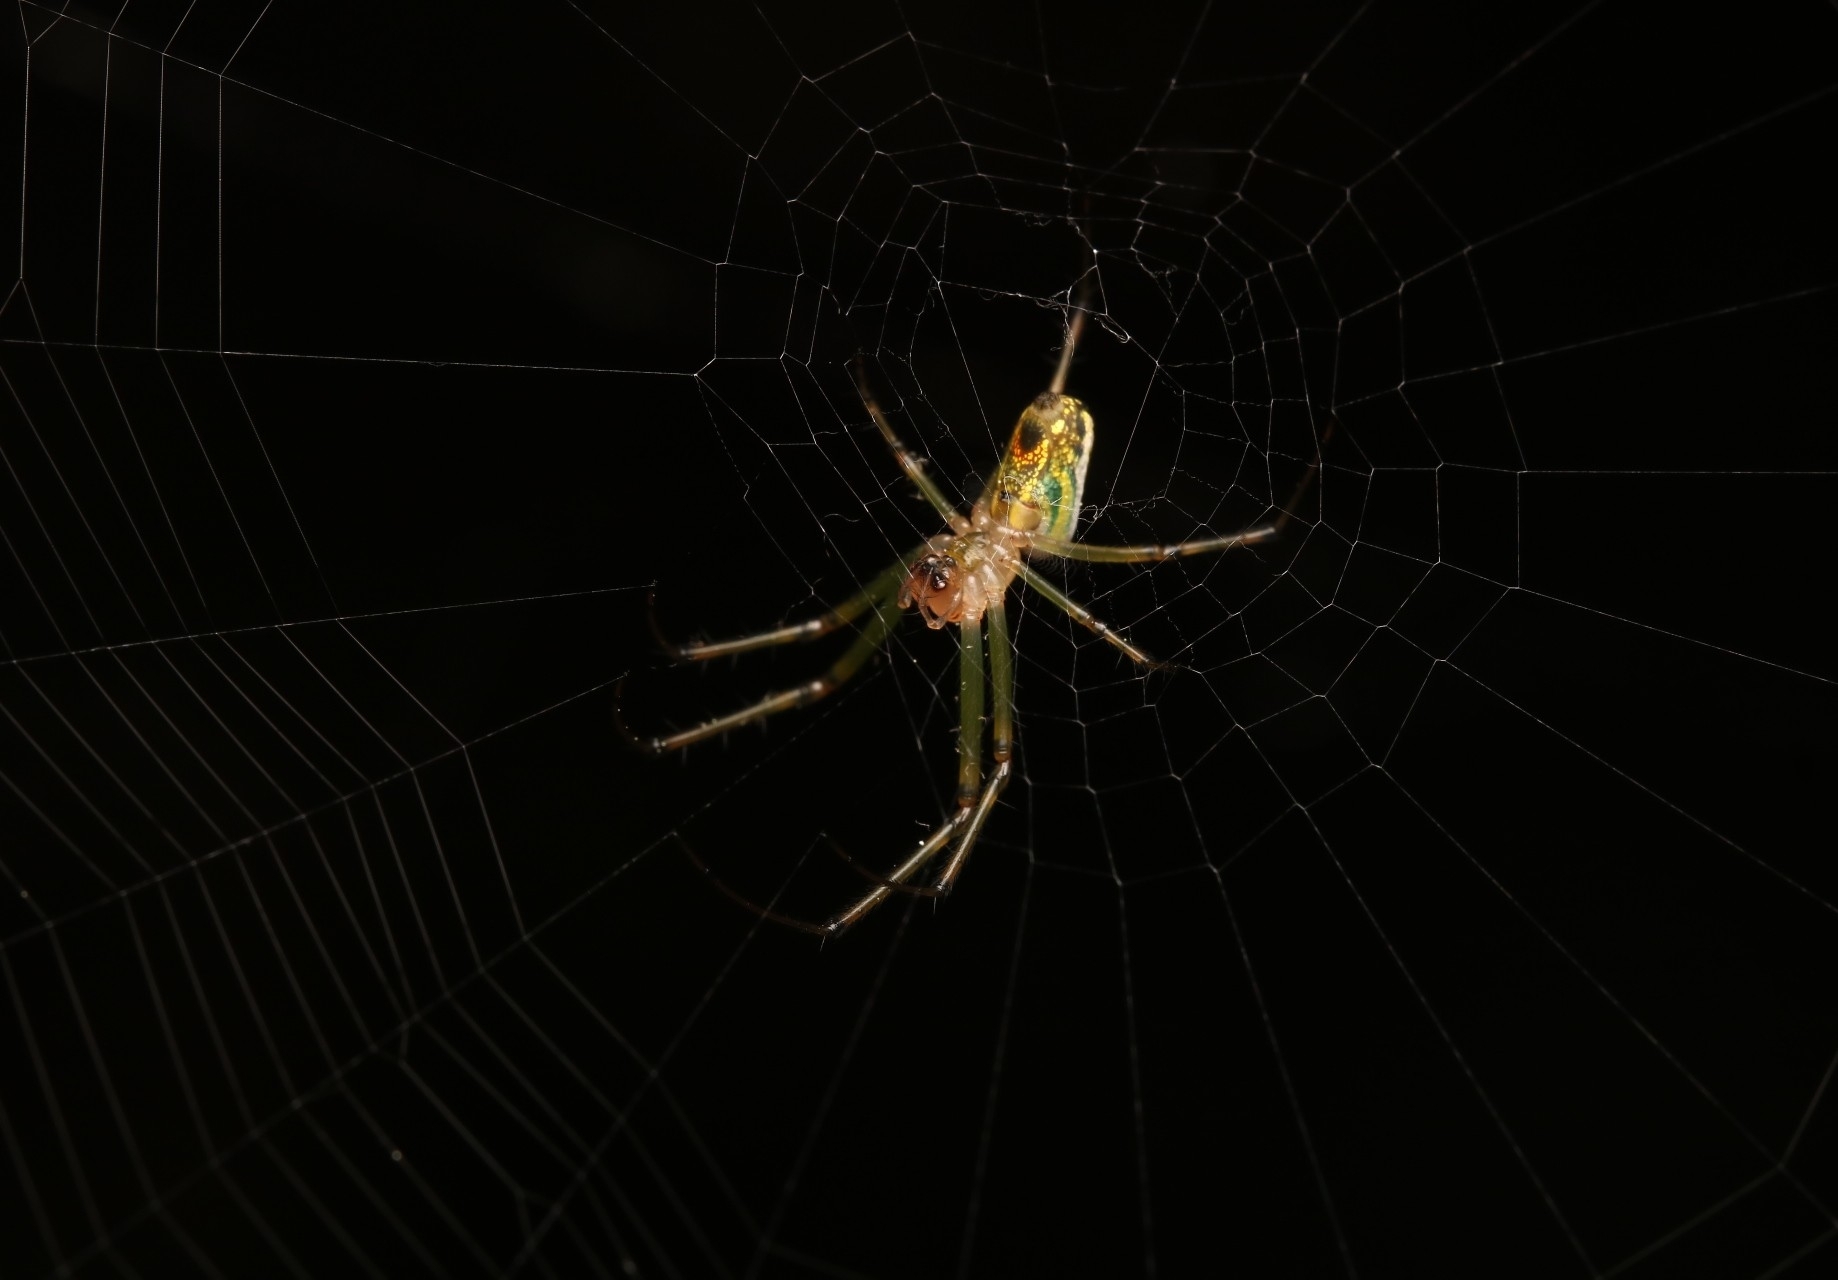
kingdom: Animalia
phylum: Arthropoda
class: Arachnida
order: Araneae
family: Tetragnathidae
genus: Leucauge
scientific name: Leucauge venusta
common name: Longjawed orb weavers
